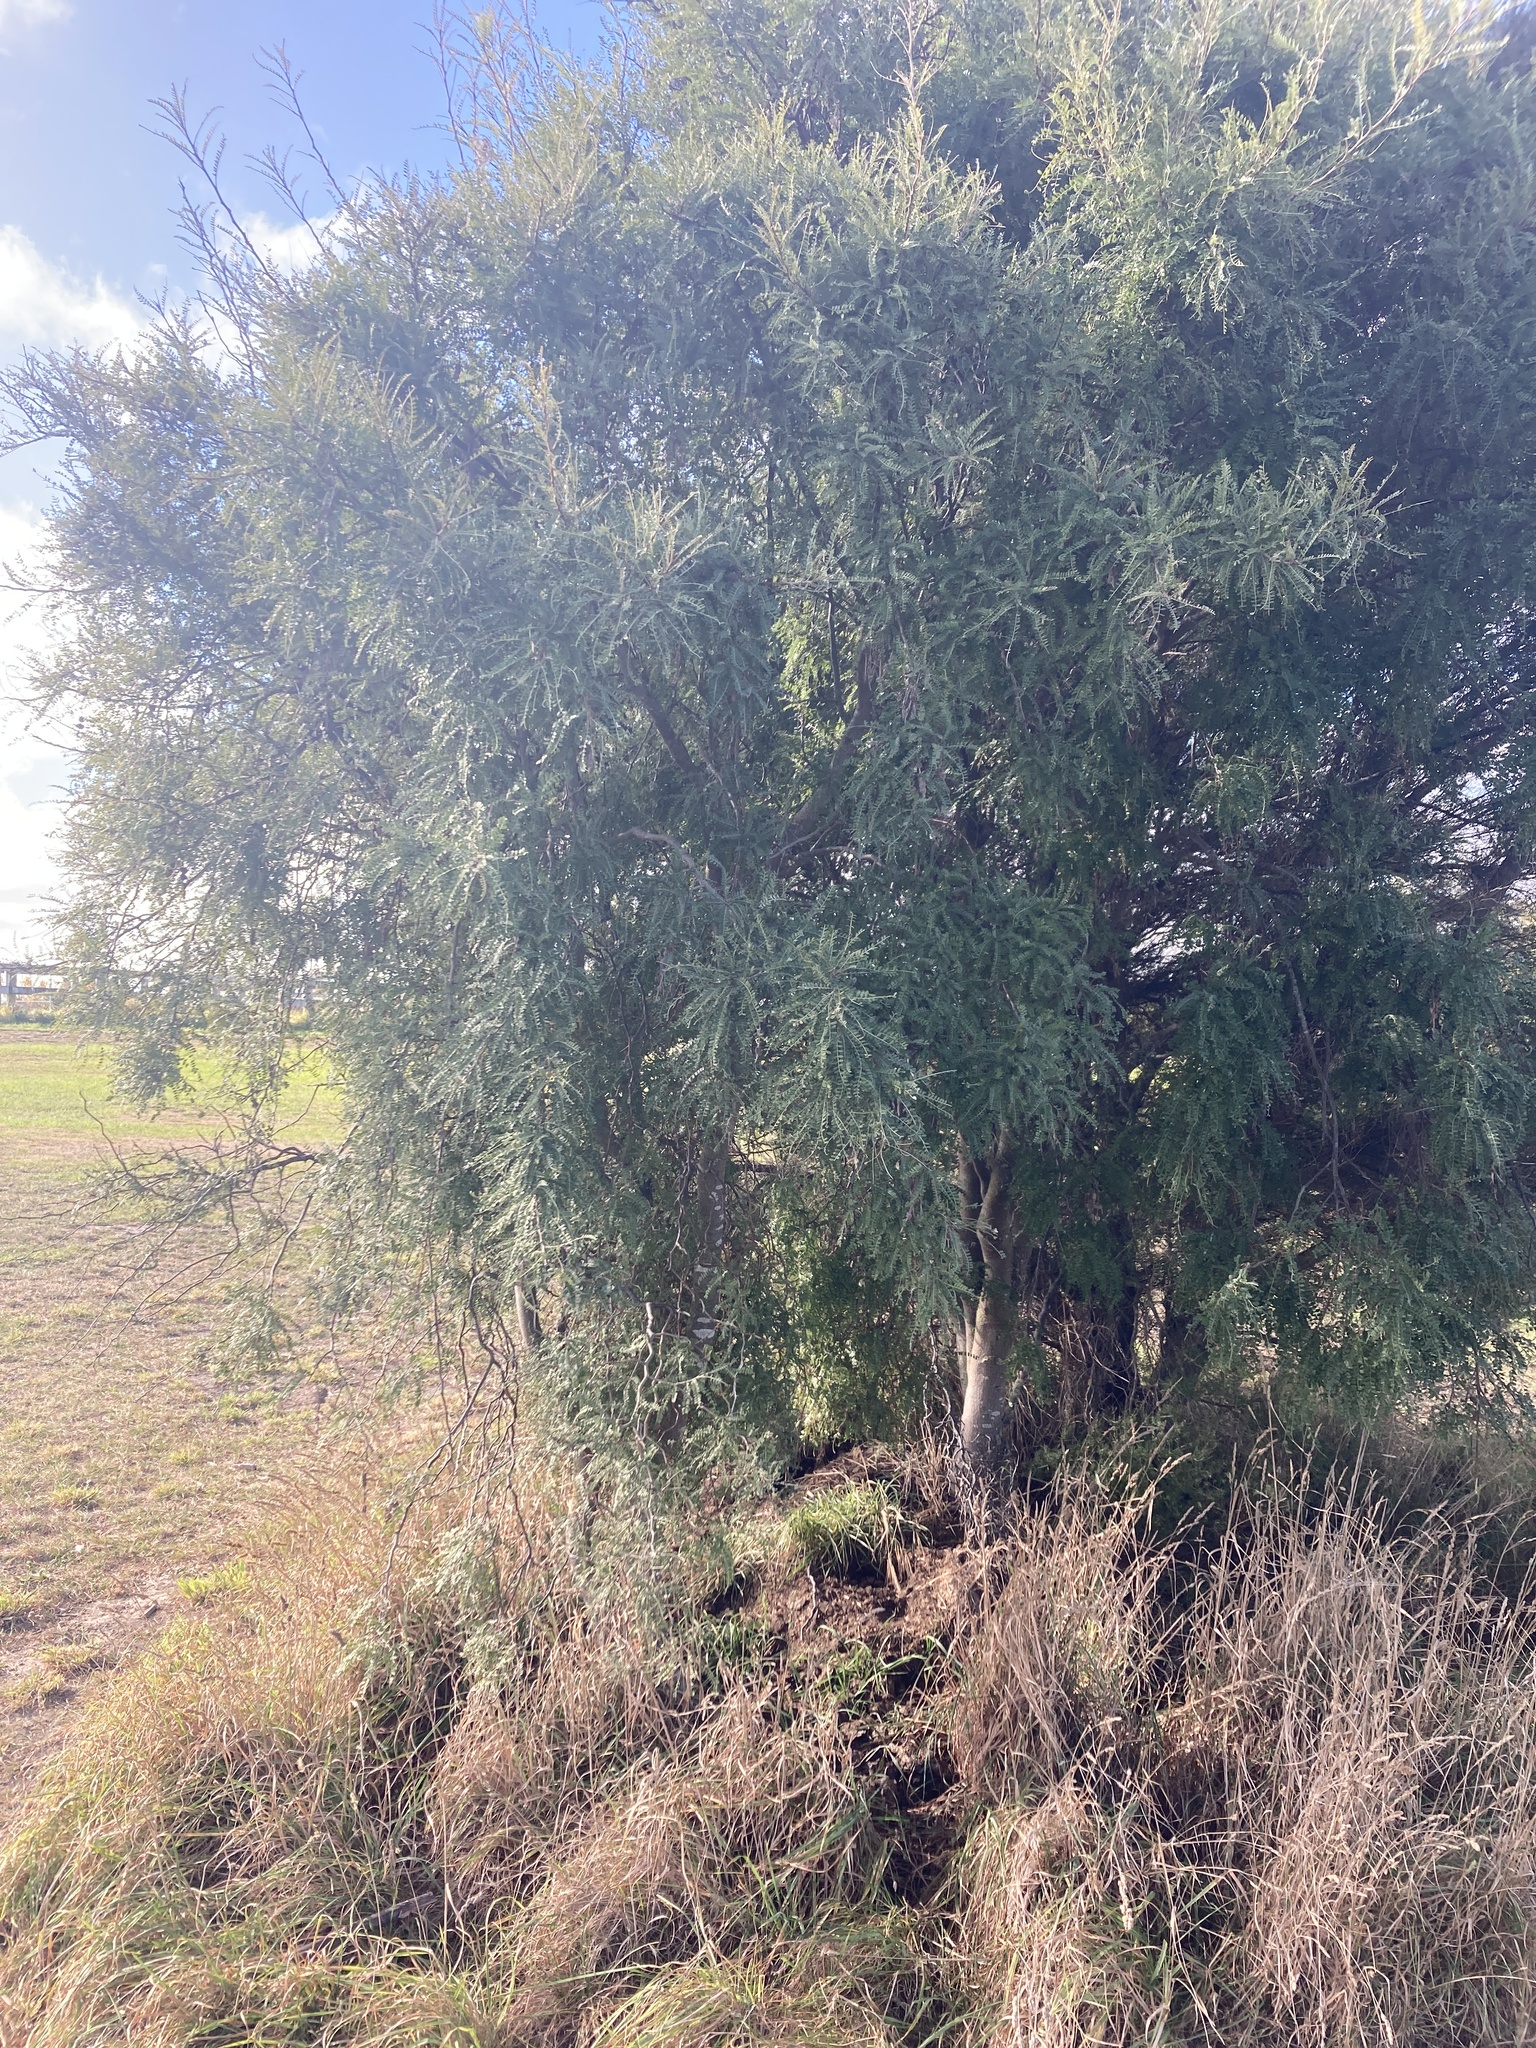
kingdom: Plantae
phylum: Tracheophyta
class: Magnoliopsida
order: Fabales
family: Fabaceae
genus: Sophora
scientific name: Sophora microphylla
